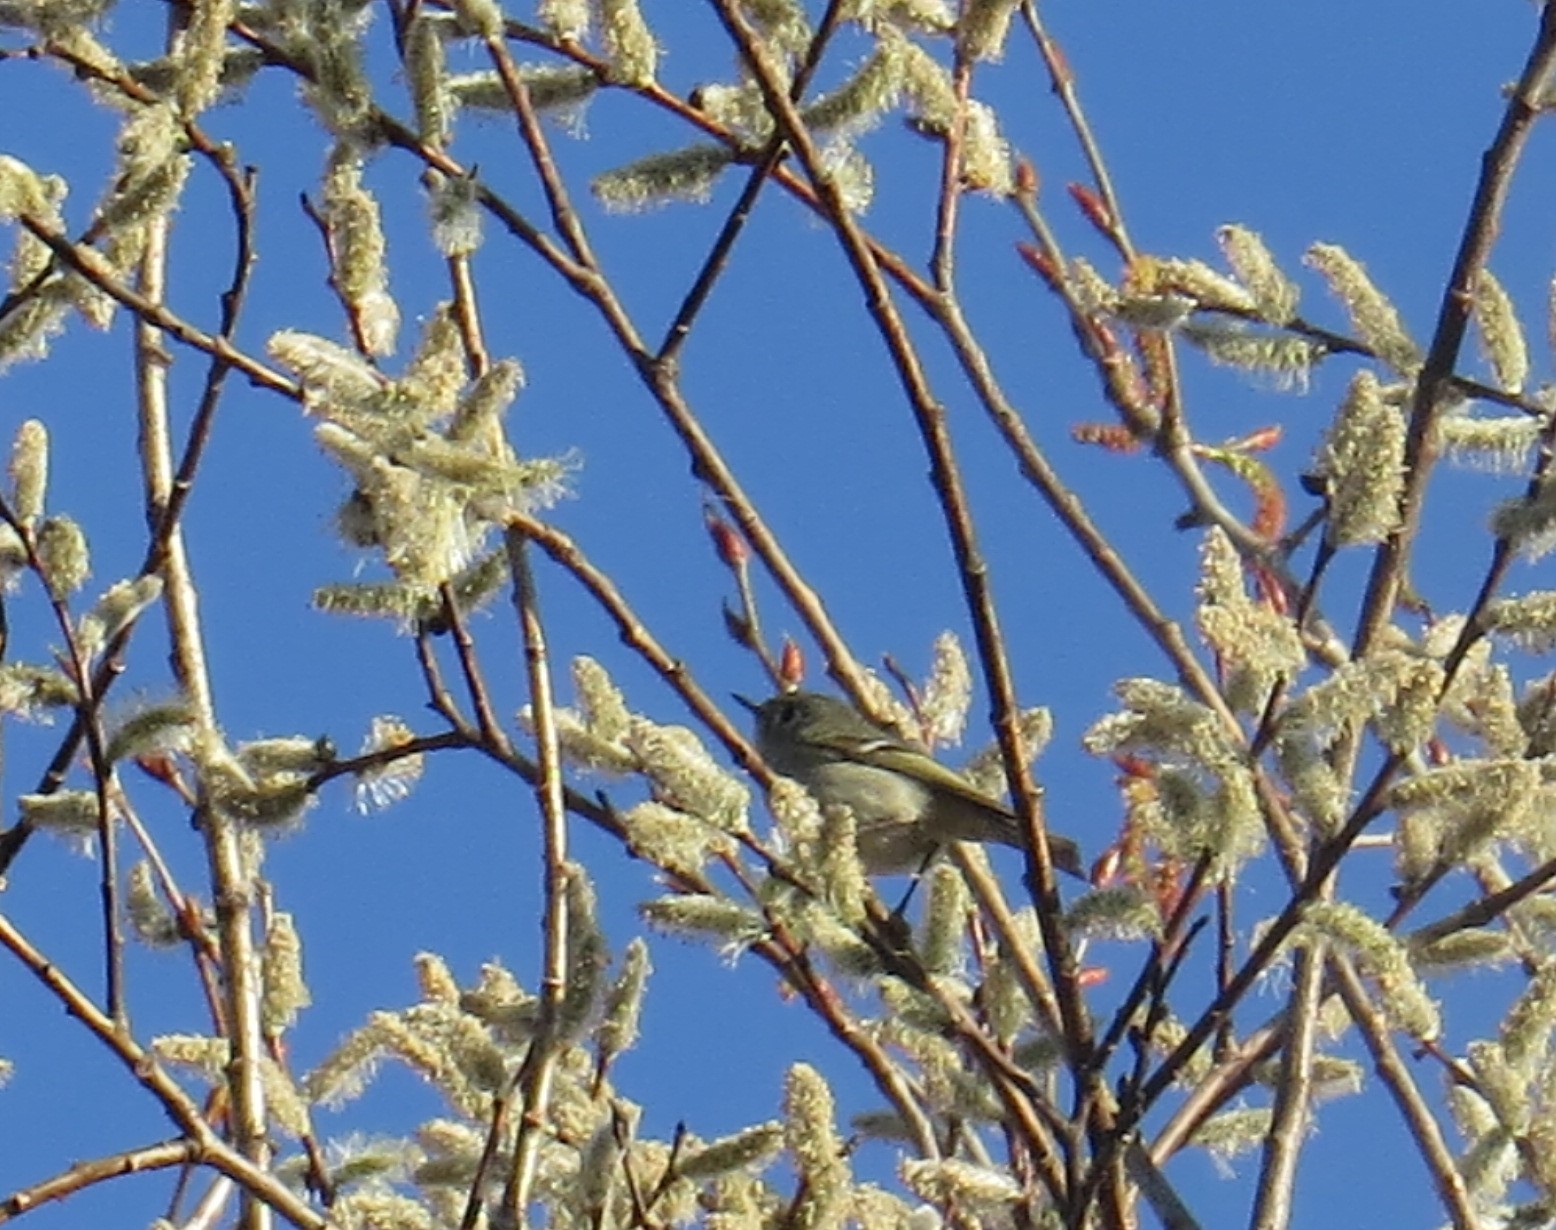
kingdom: Animalia
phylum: Chordata
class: Aves
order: Passeriformes
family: Regulidae
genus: Regulus
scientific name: Regulus calendula
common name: Ruby-crowned kinglet
